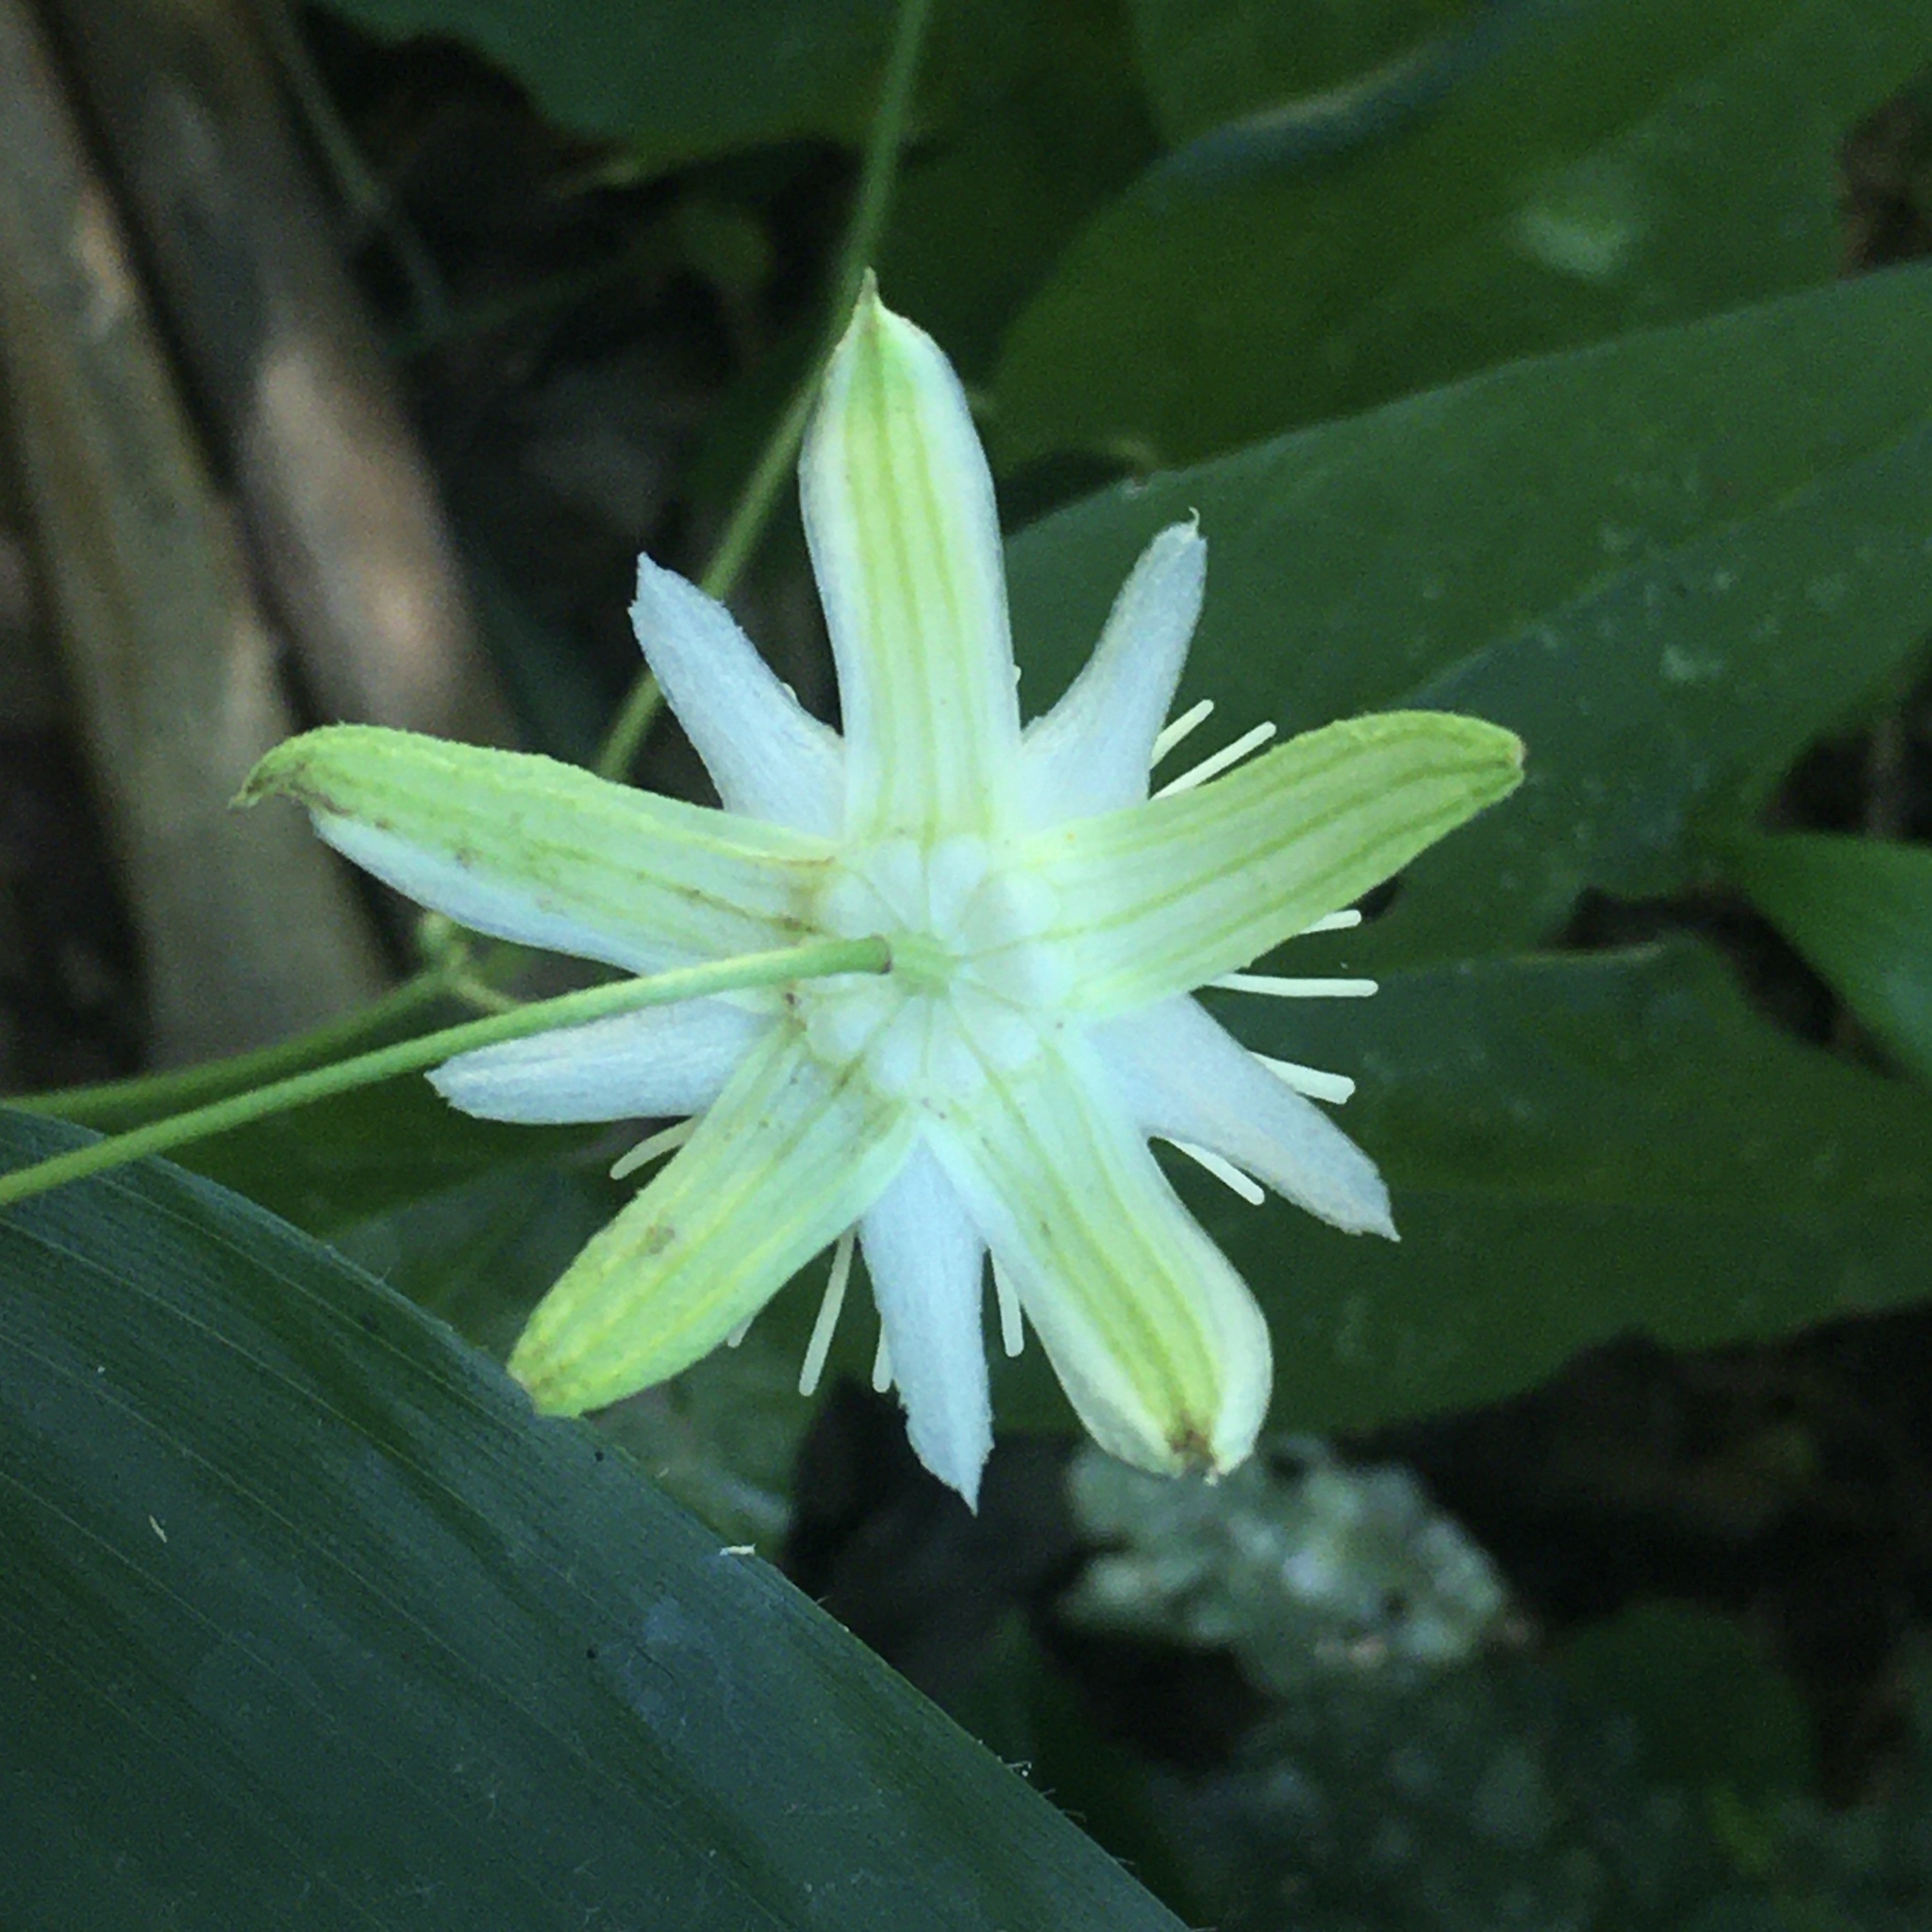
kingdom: Plantae
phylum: Tracheophyta
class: Magnoliopsida
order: Malpighiales
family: Passifloraceae
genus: Passiflora
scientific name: Passiflora capsularis
